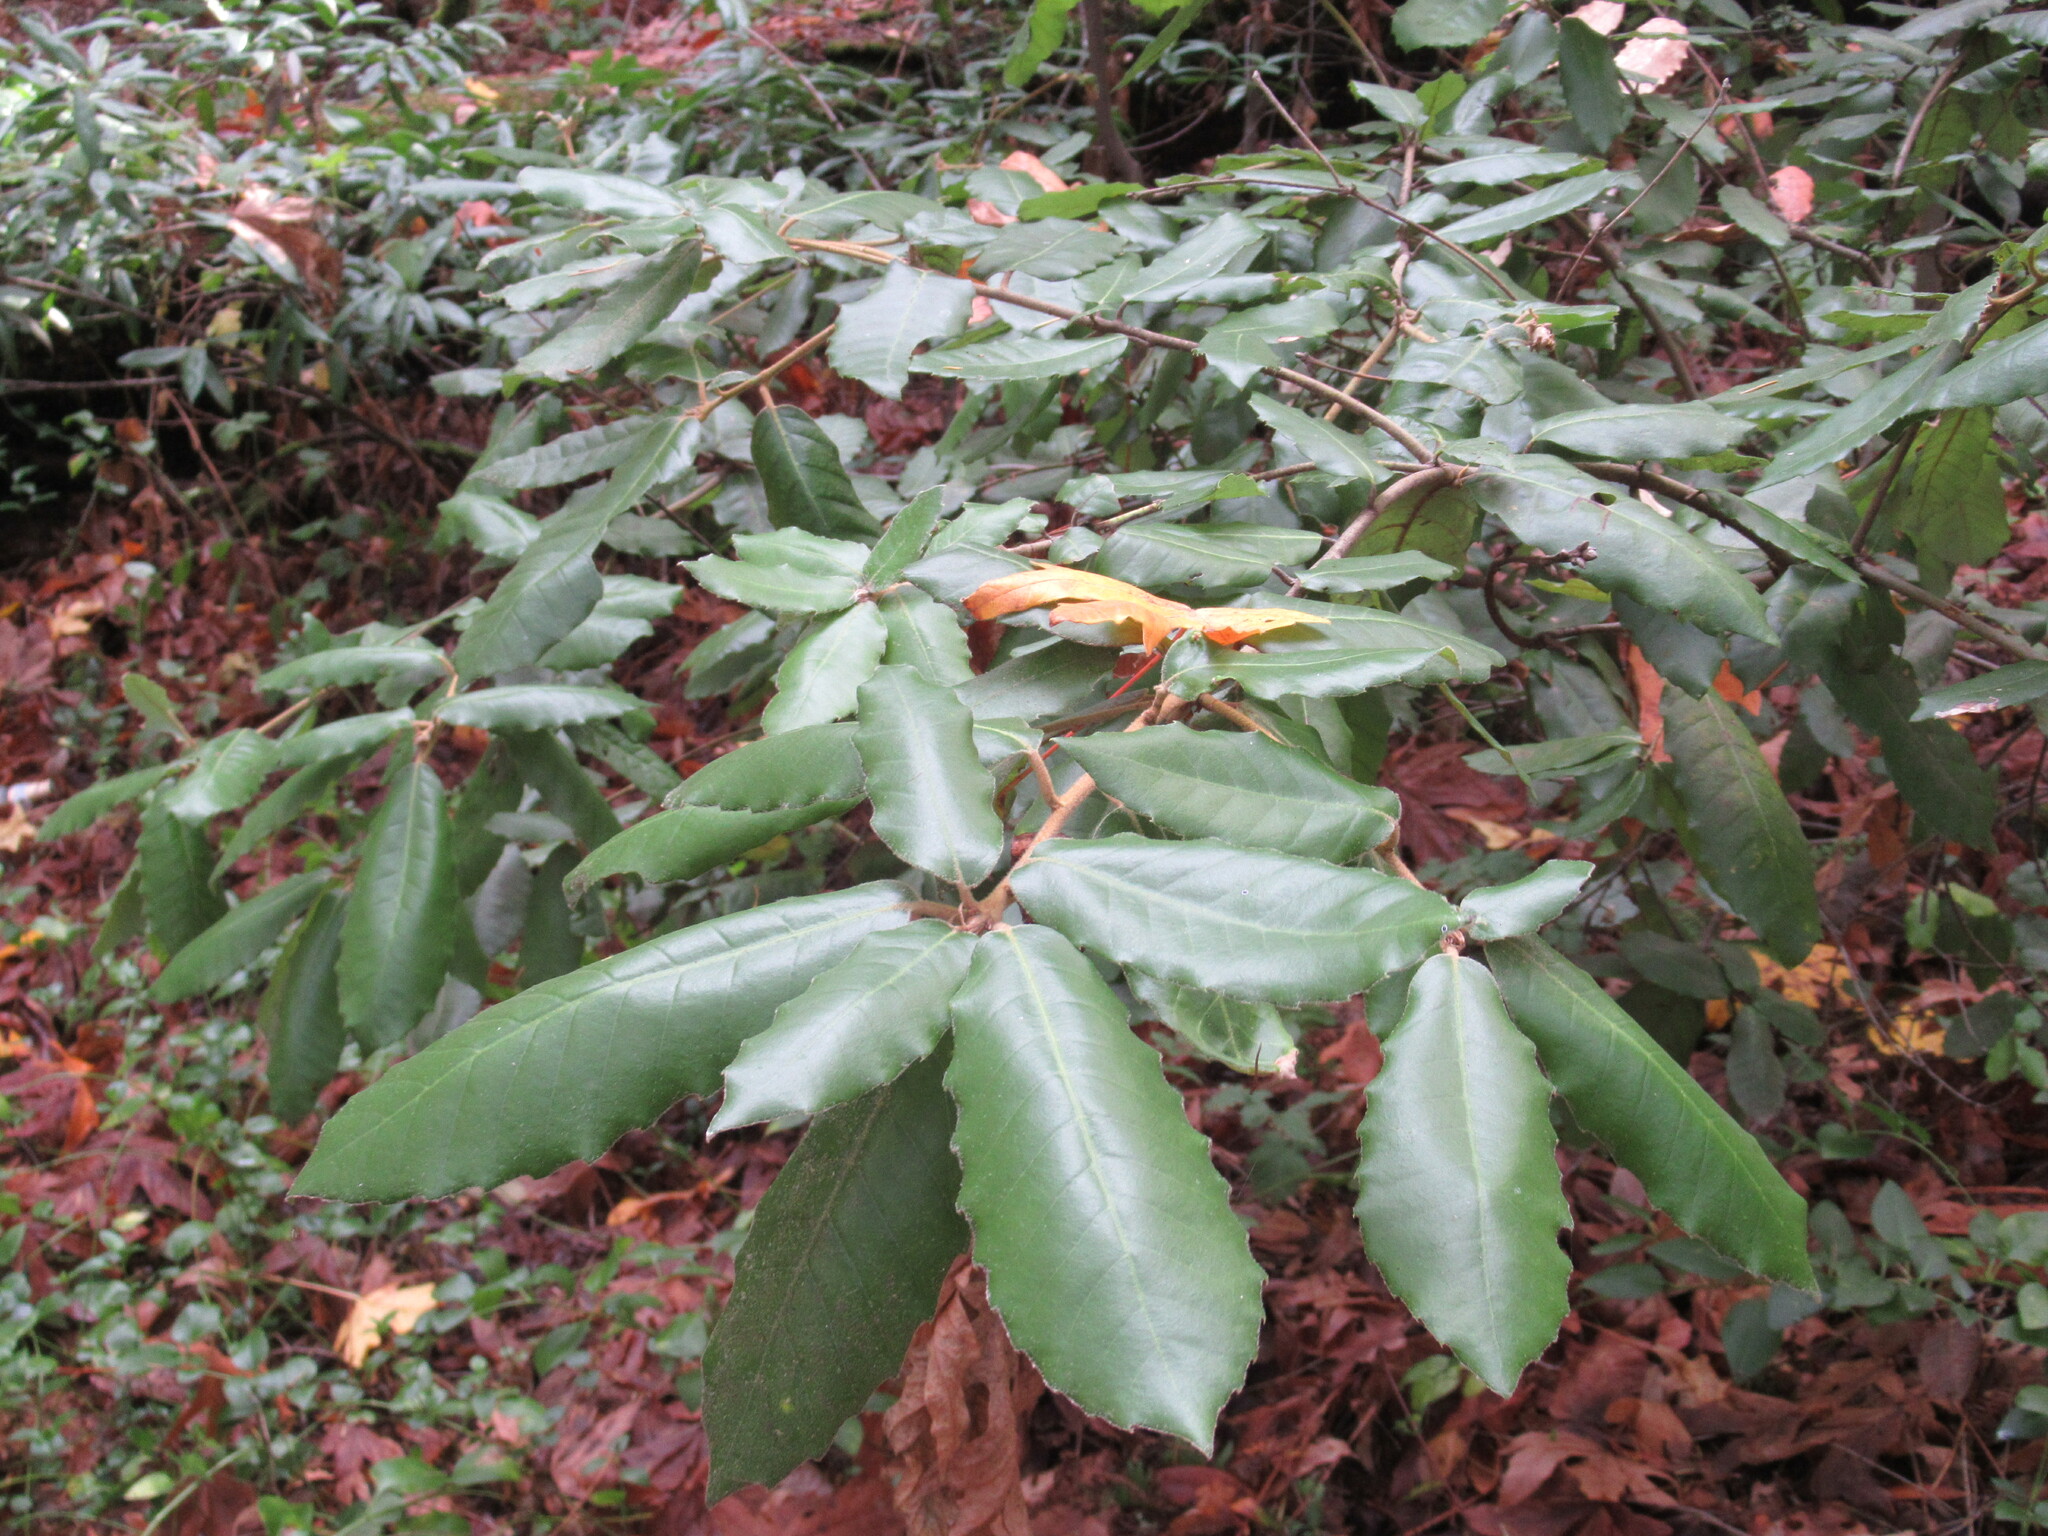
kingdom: Plantae
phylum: Tracheophyta
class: Magnoliopsida
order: Fagales
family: Fagaceae
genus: Notholithocarpus
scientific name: Notholithocarpus densiflorus
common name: Tan bark oak
